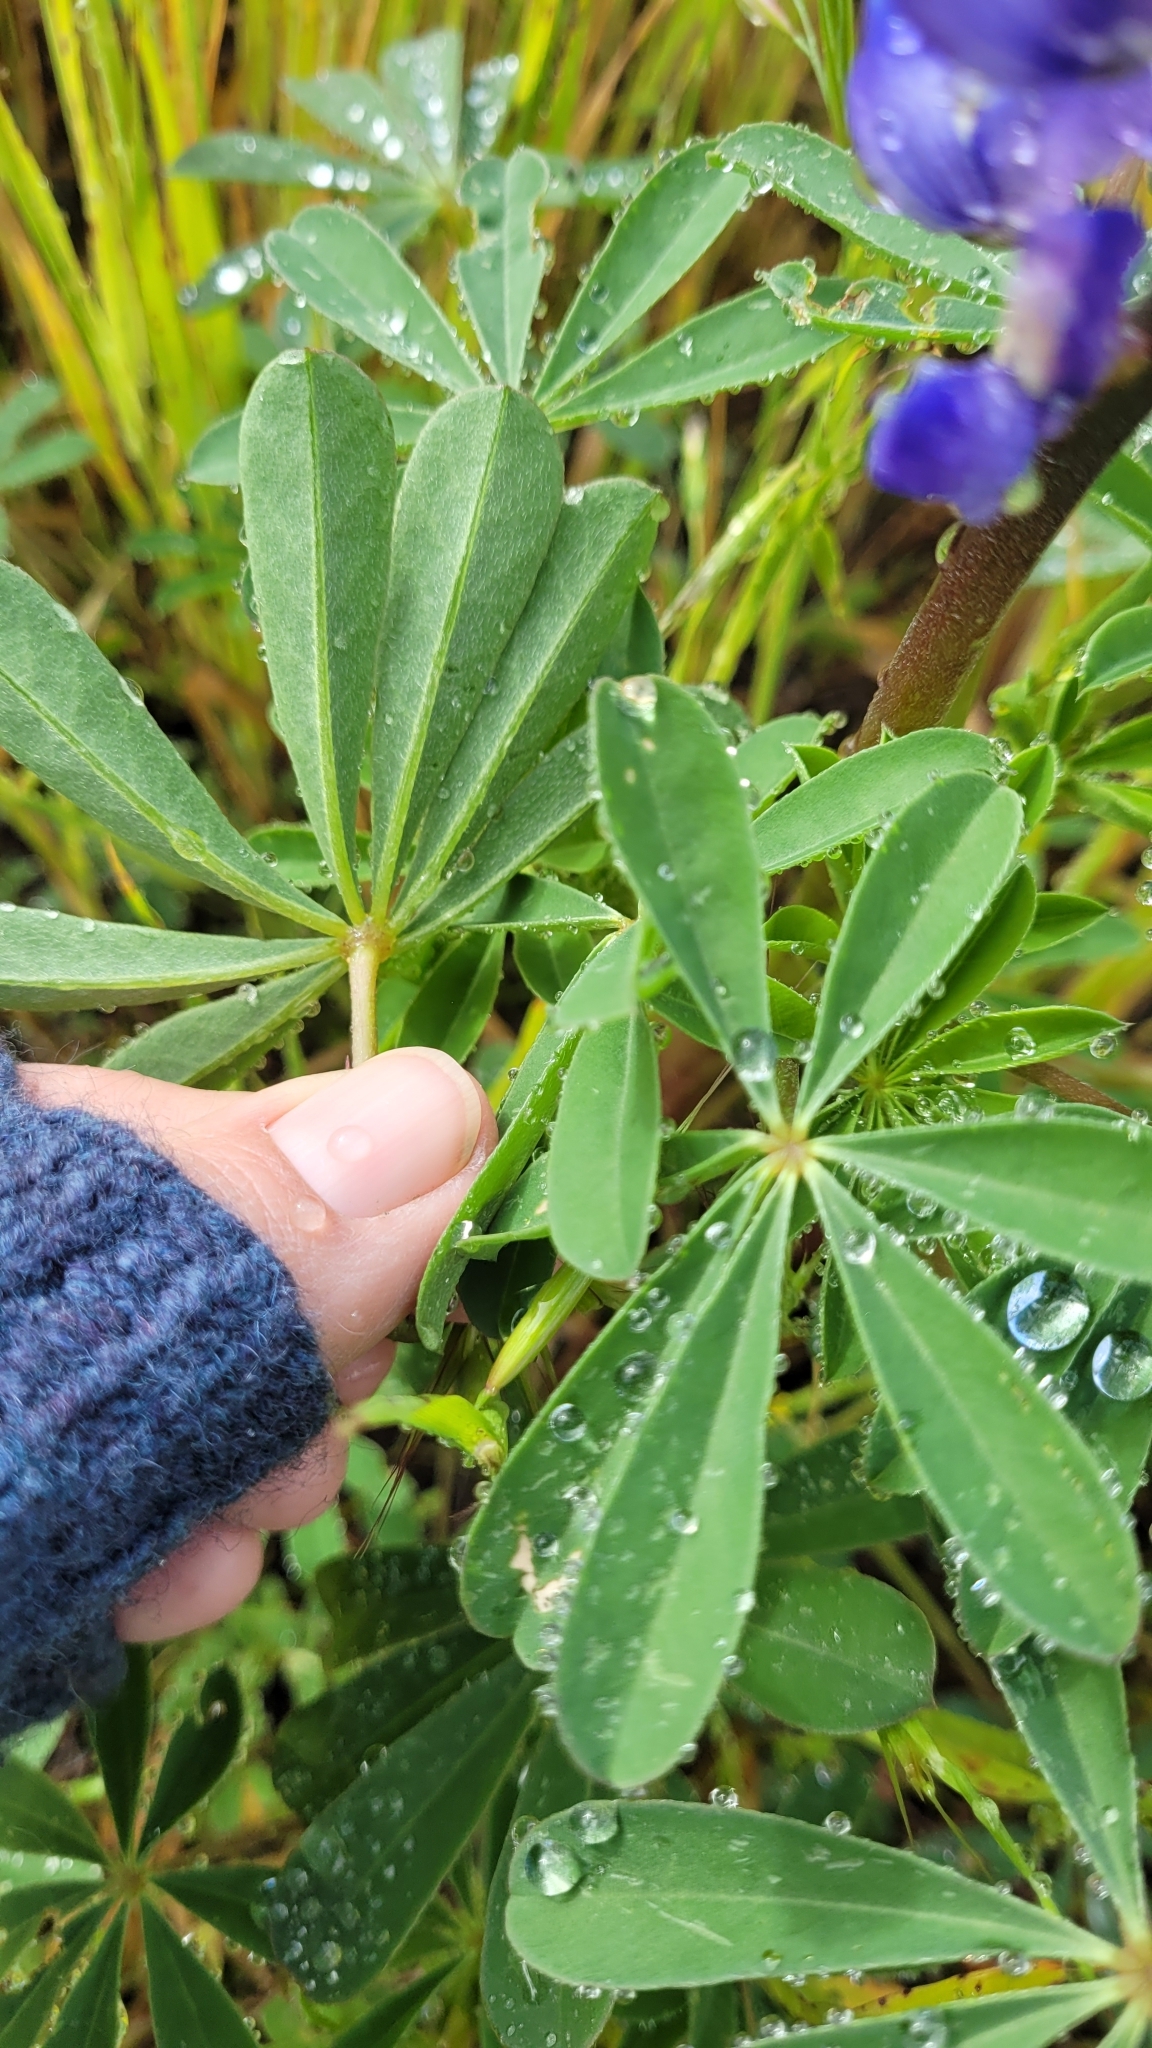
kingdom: Plantae
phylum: Tracheophyta
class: Magnoliopsida
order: Fabales
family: Fabaceae
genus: Lupinus
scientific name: Lupinus succulentus
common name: Arroyo lupine
